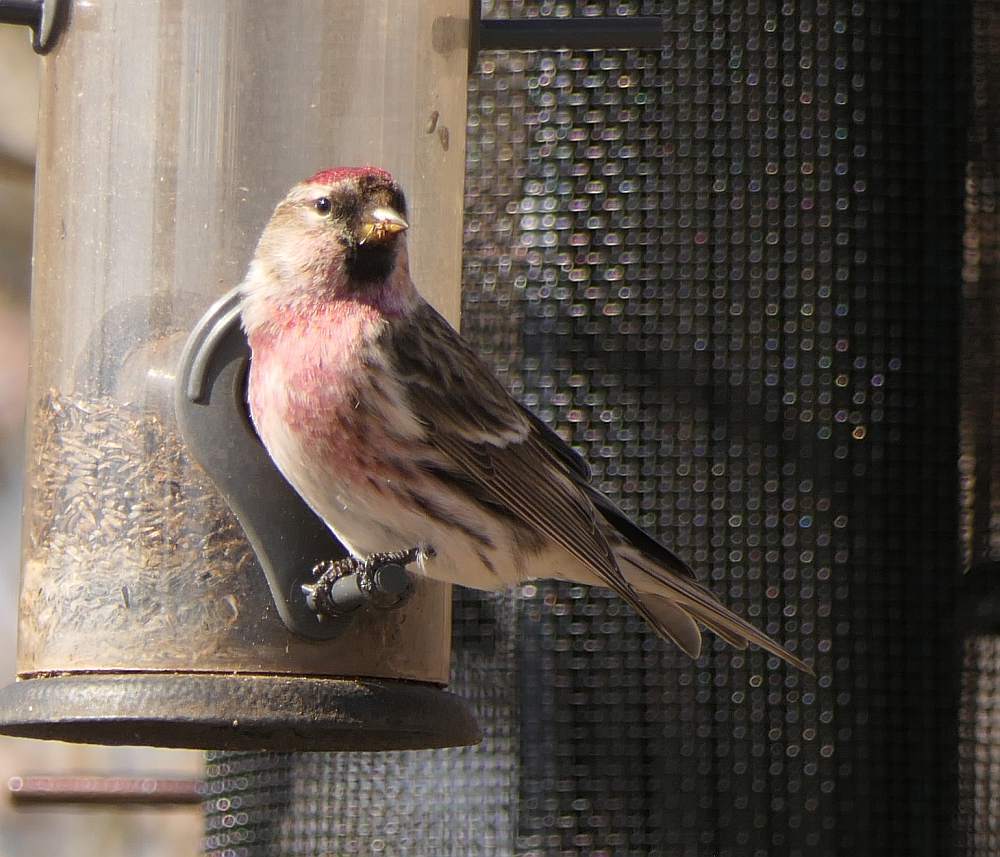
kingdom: Animalia
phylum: Chordata
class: Aves
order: Passeriformes
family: Fringillidae
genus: Acanthis
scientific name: Acanthis flammea
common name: Common redpoll
